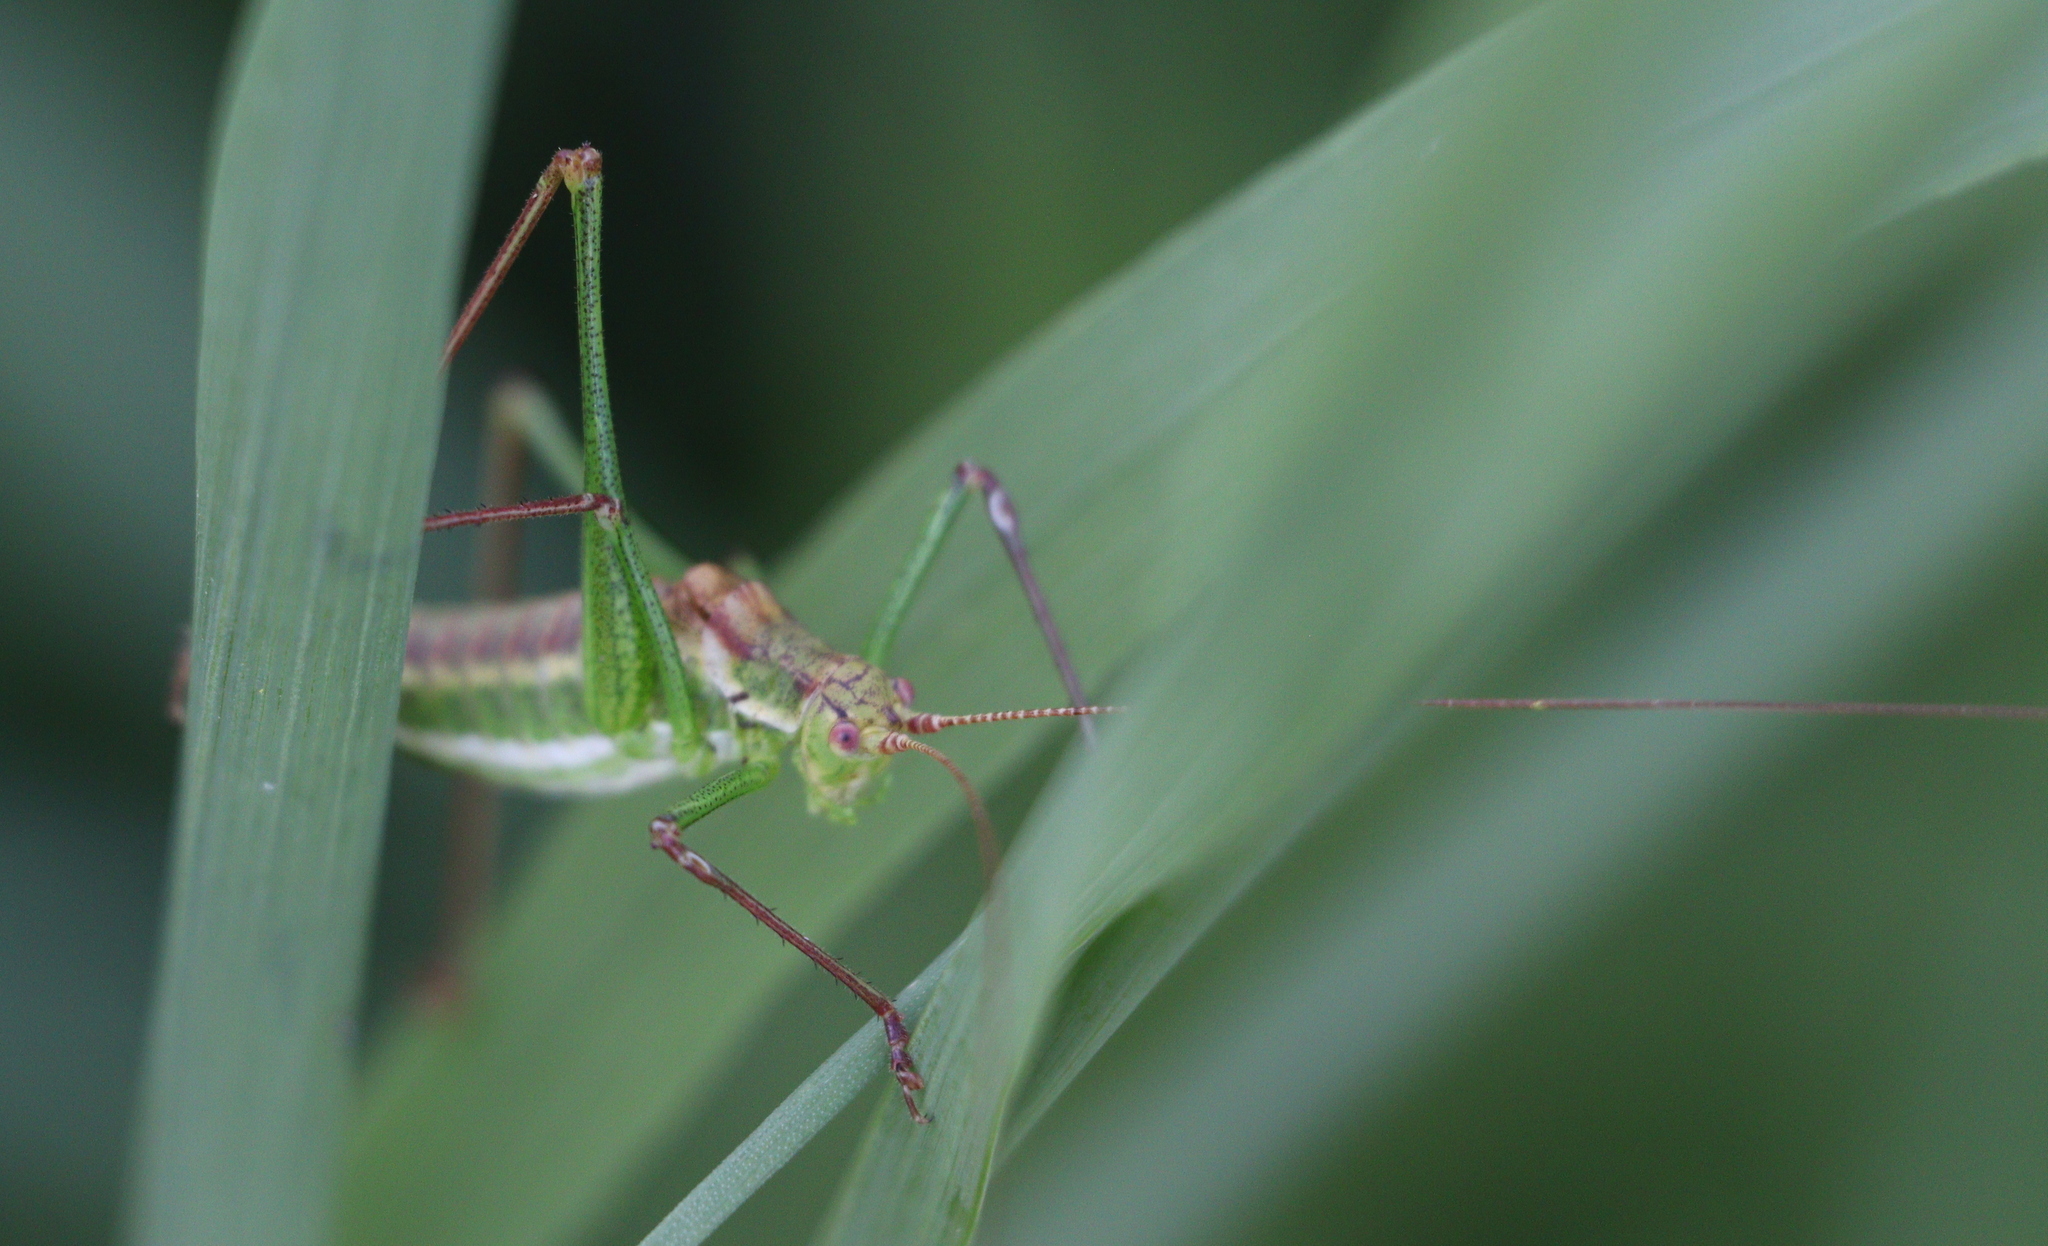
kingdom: Animalia
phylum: Arthropoda
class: Insecta
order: Orthoptera
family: Tettigoniidae
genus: Leptophyes
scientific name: Leptophyes albovittata
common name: Striped bush-cricket
